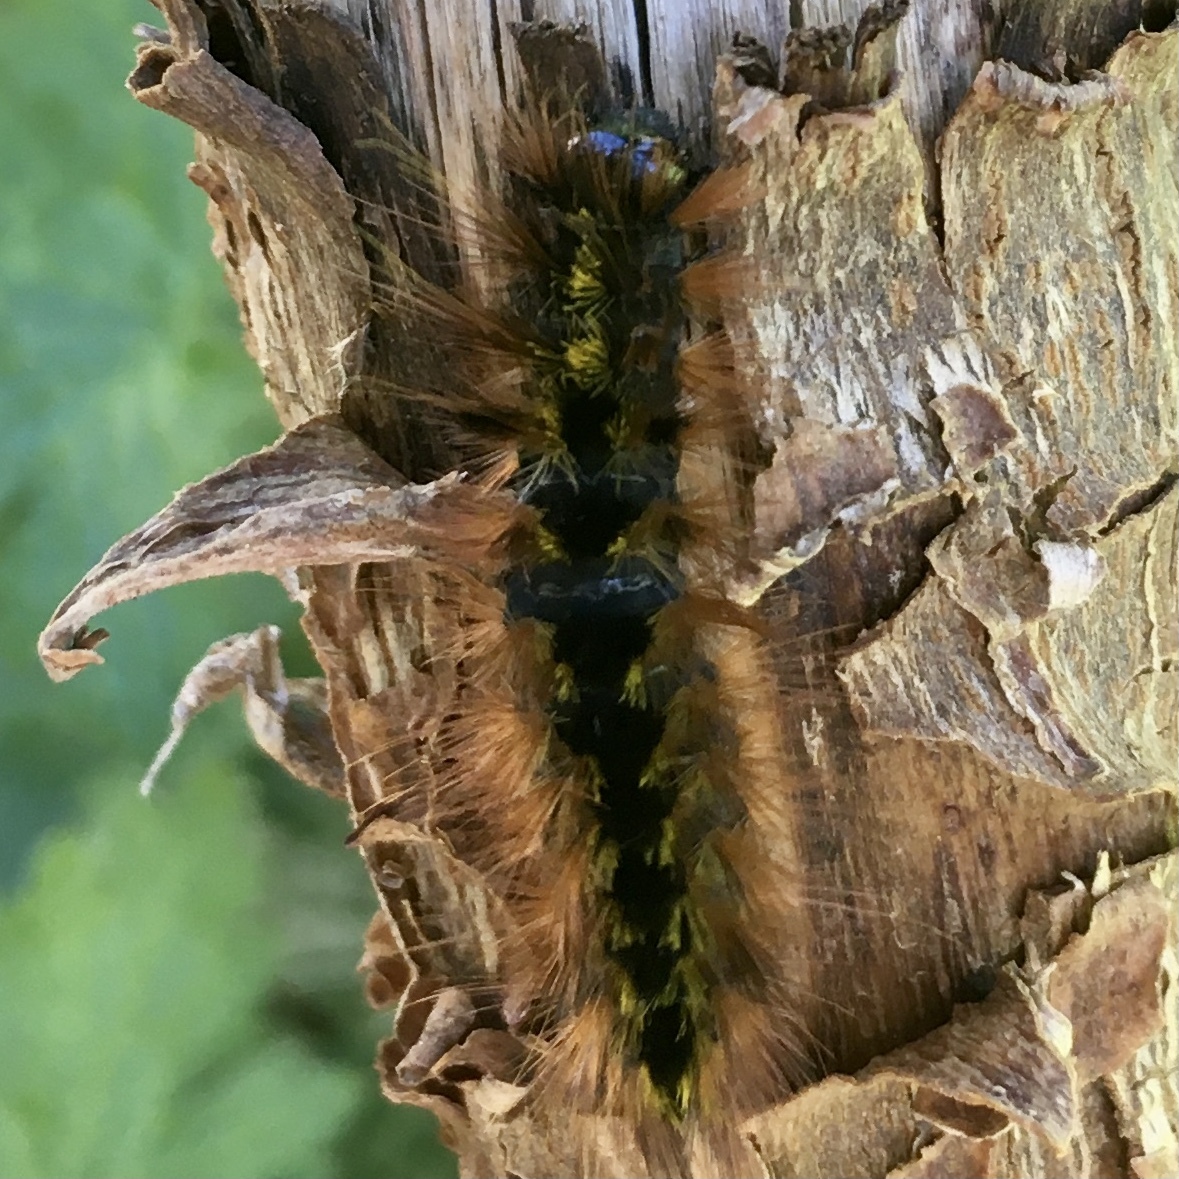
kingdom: Animalia
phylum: Arthropoda
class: Insecta
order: Lepidoptera
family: Erebidae
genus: Lophocampa
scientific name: Lophocampa argentata
